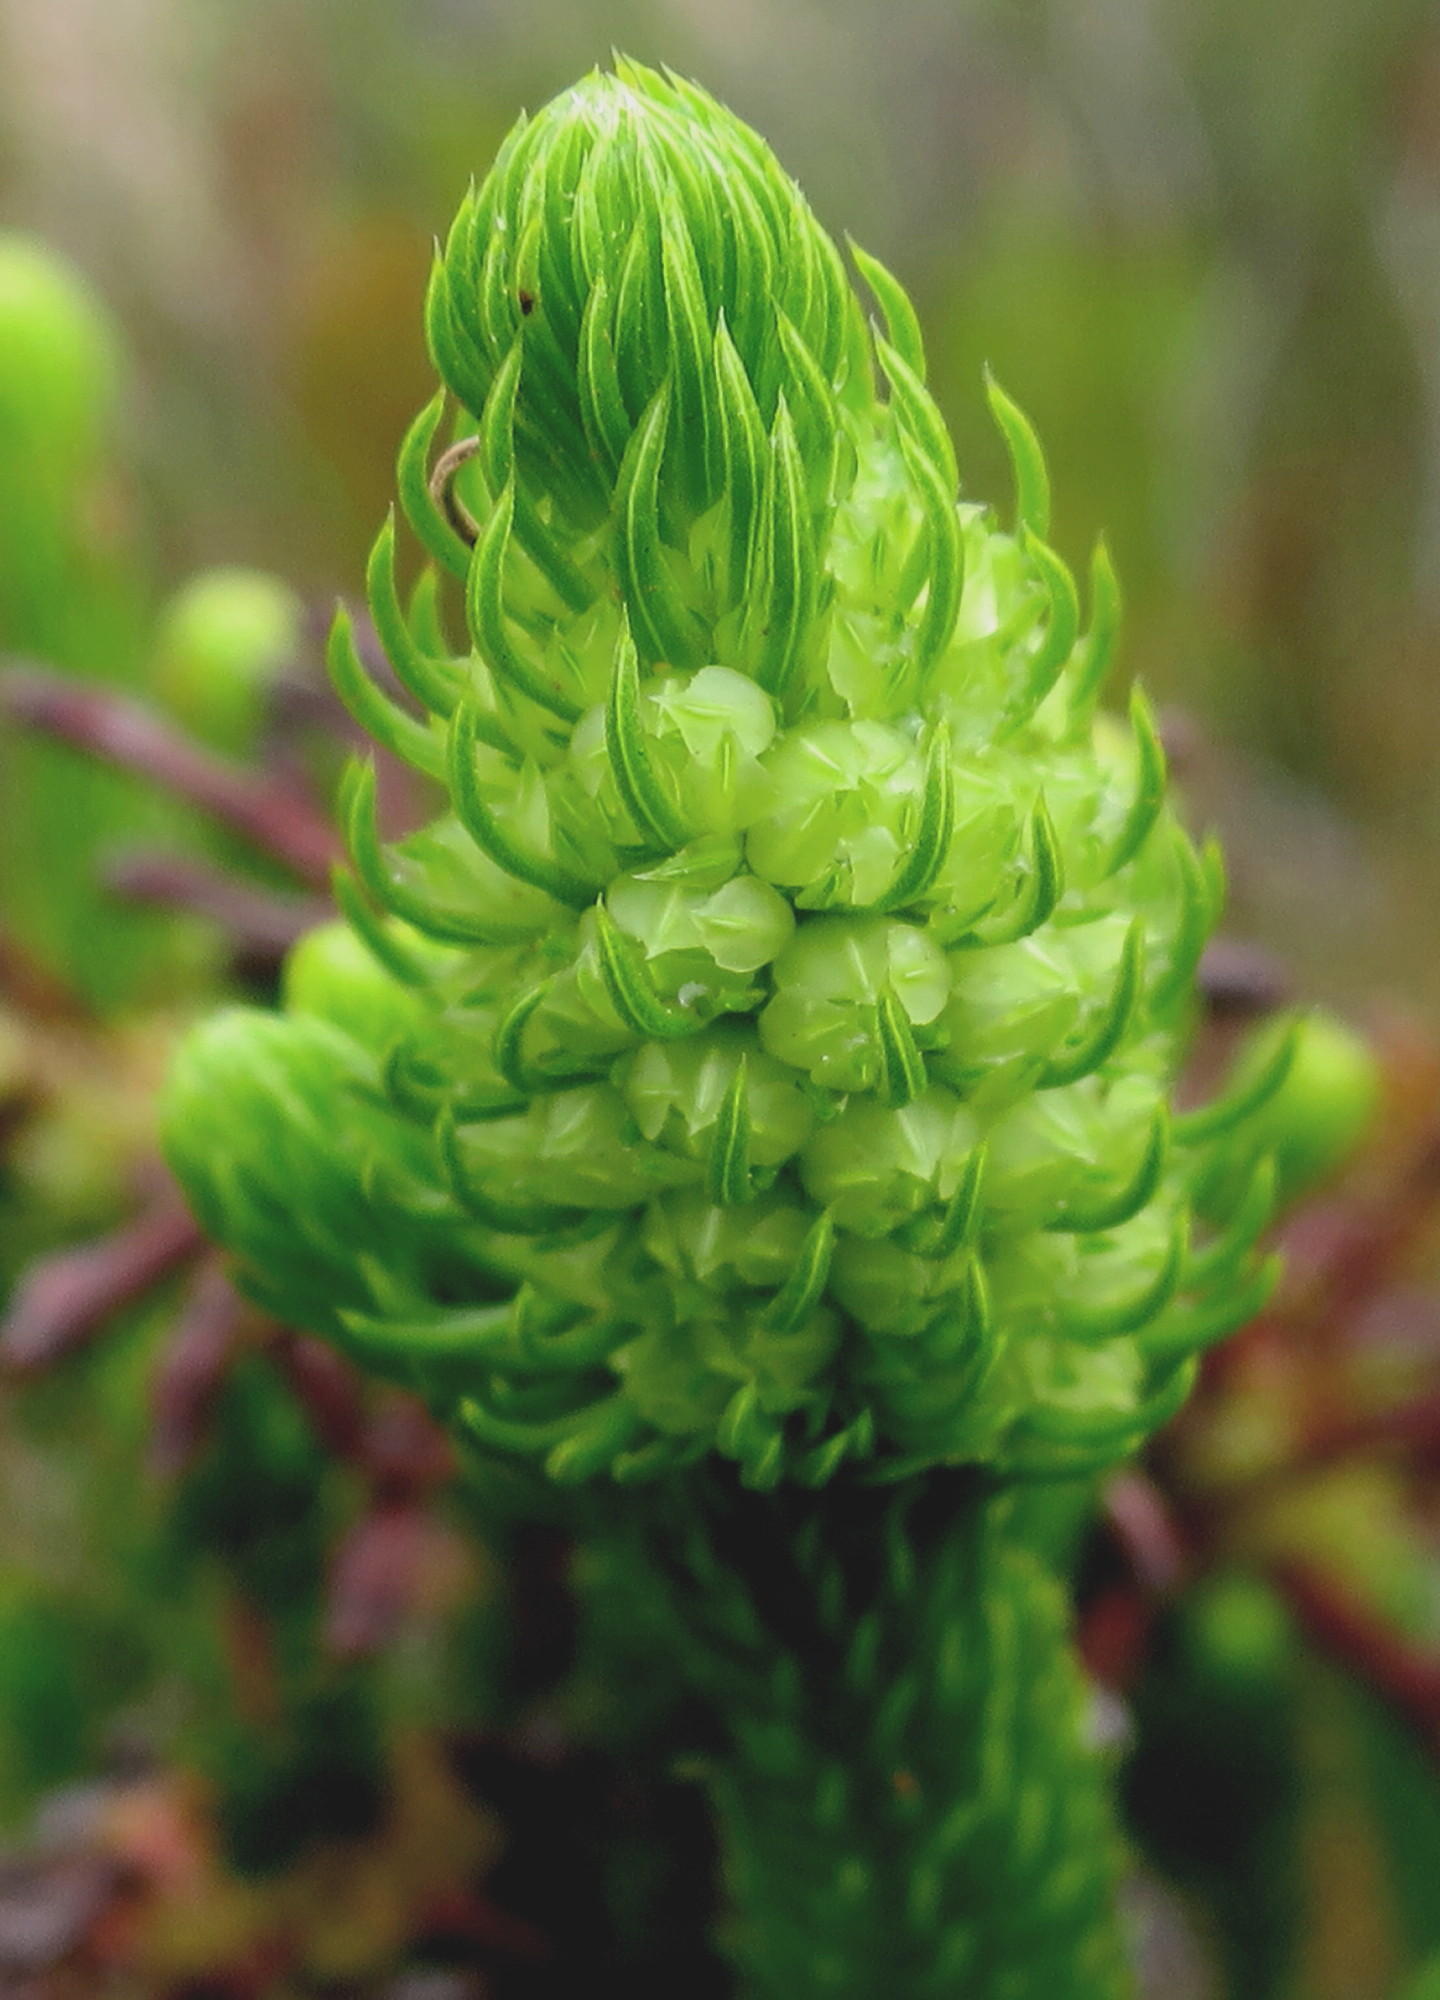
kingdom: Plantae
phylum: Tracheophyta
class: Magnoliopsida
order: Ericales
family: Ericaceae
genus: Erica
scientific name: Erica sessiliflora
